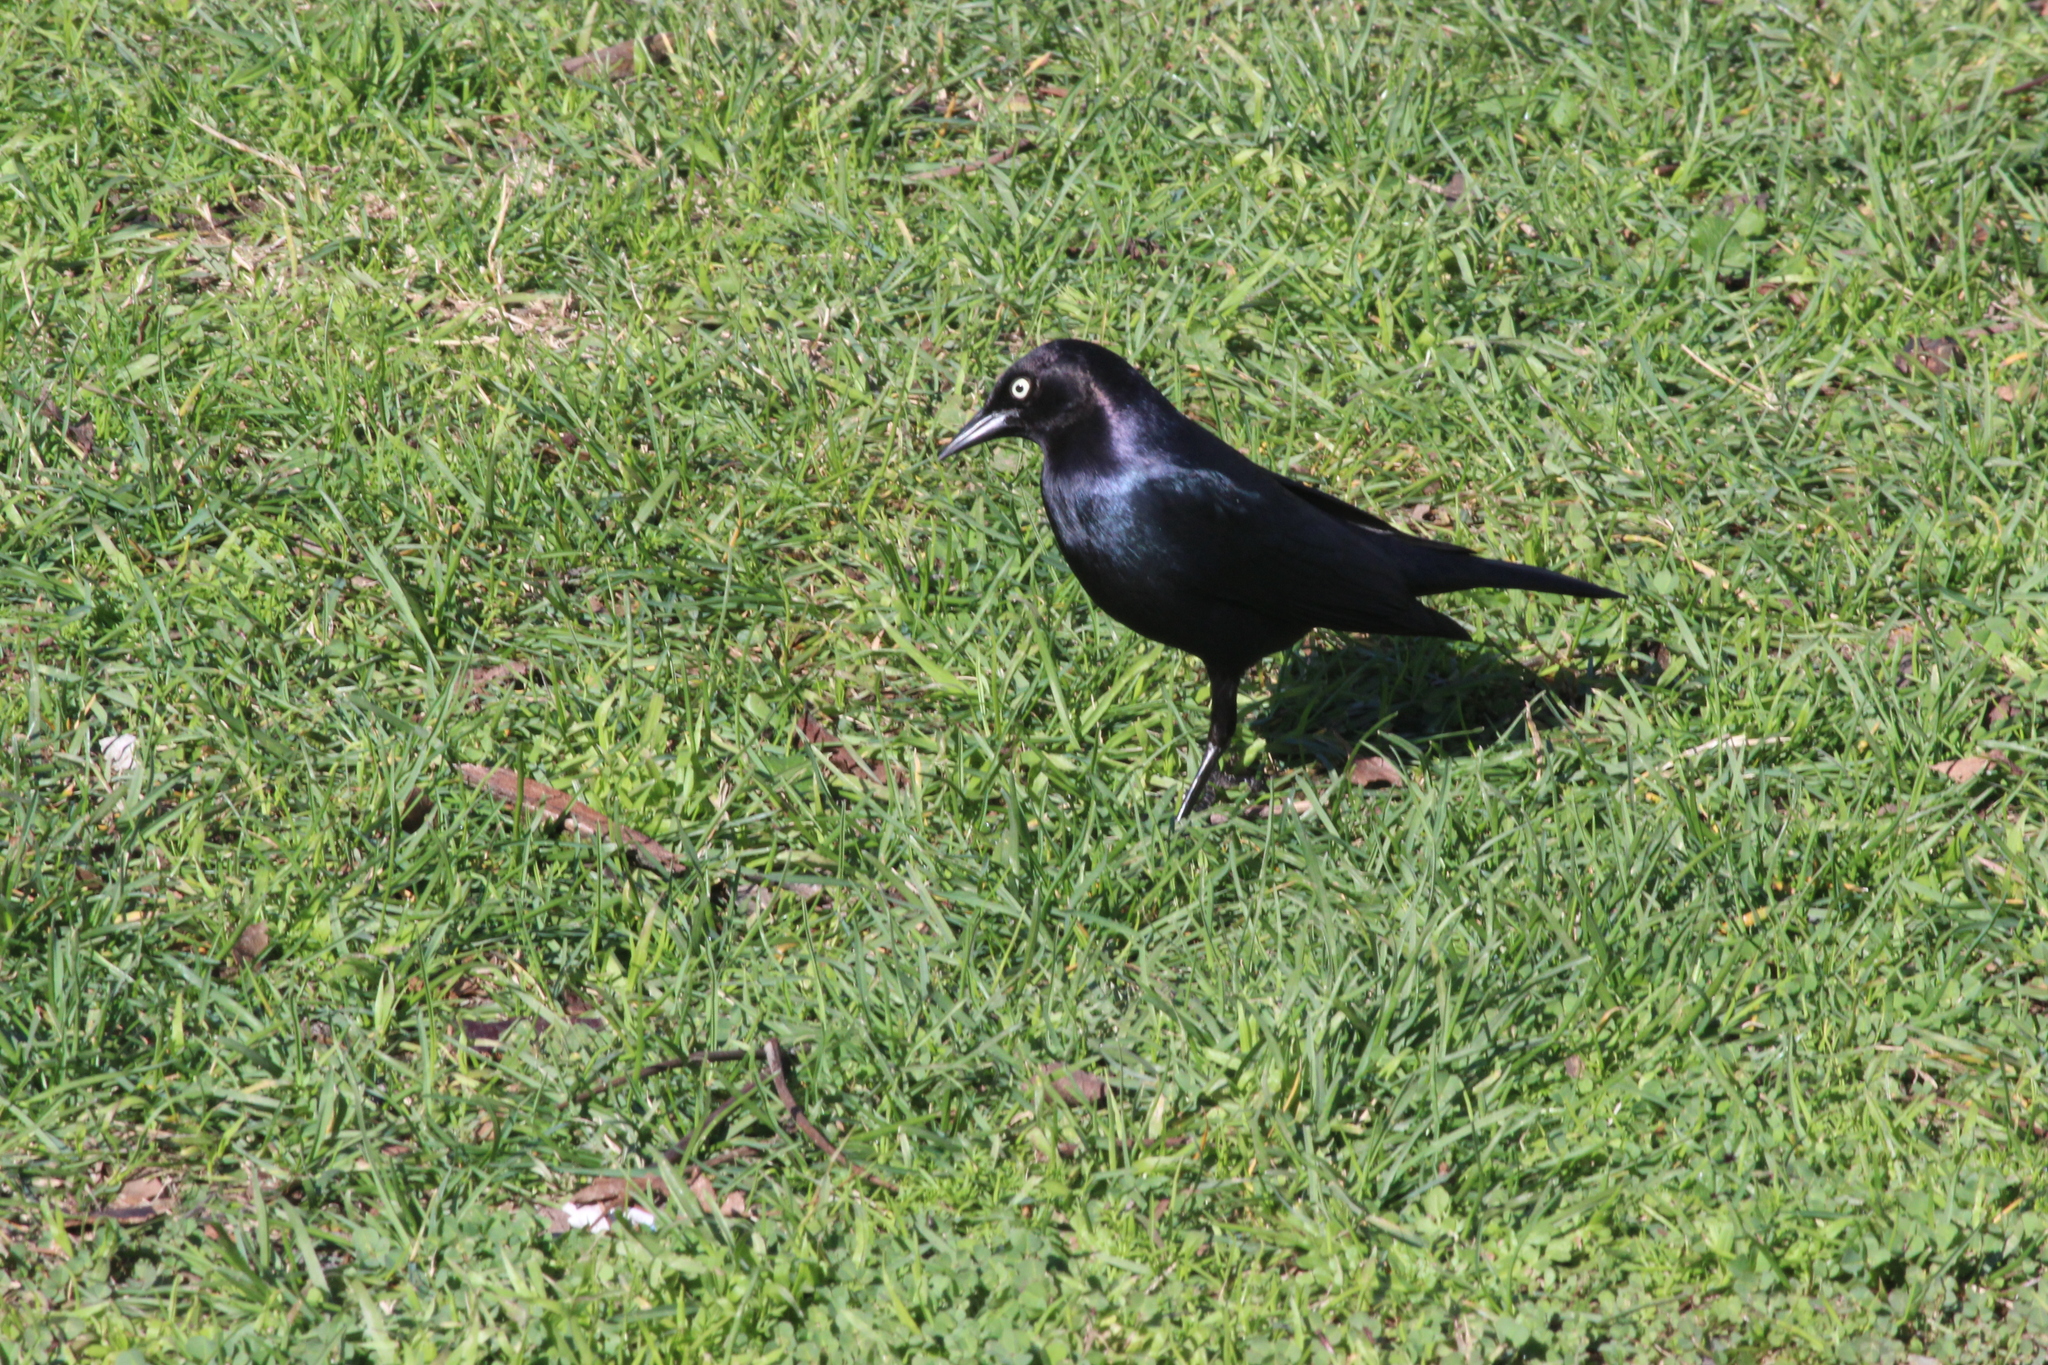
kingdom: Animalia
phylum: Chordata
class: Aves
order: Passeriformes
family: Icteridae
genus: Euphagus
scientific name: Euphagus cyanocephalus
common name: Brewer's blackbird
